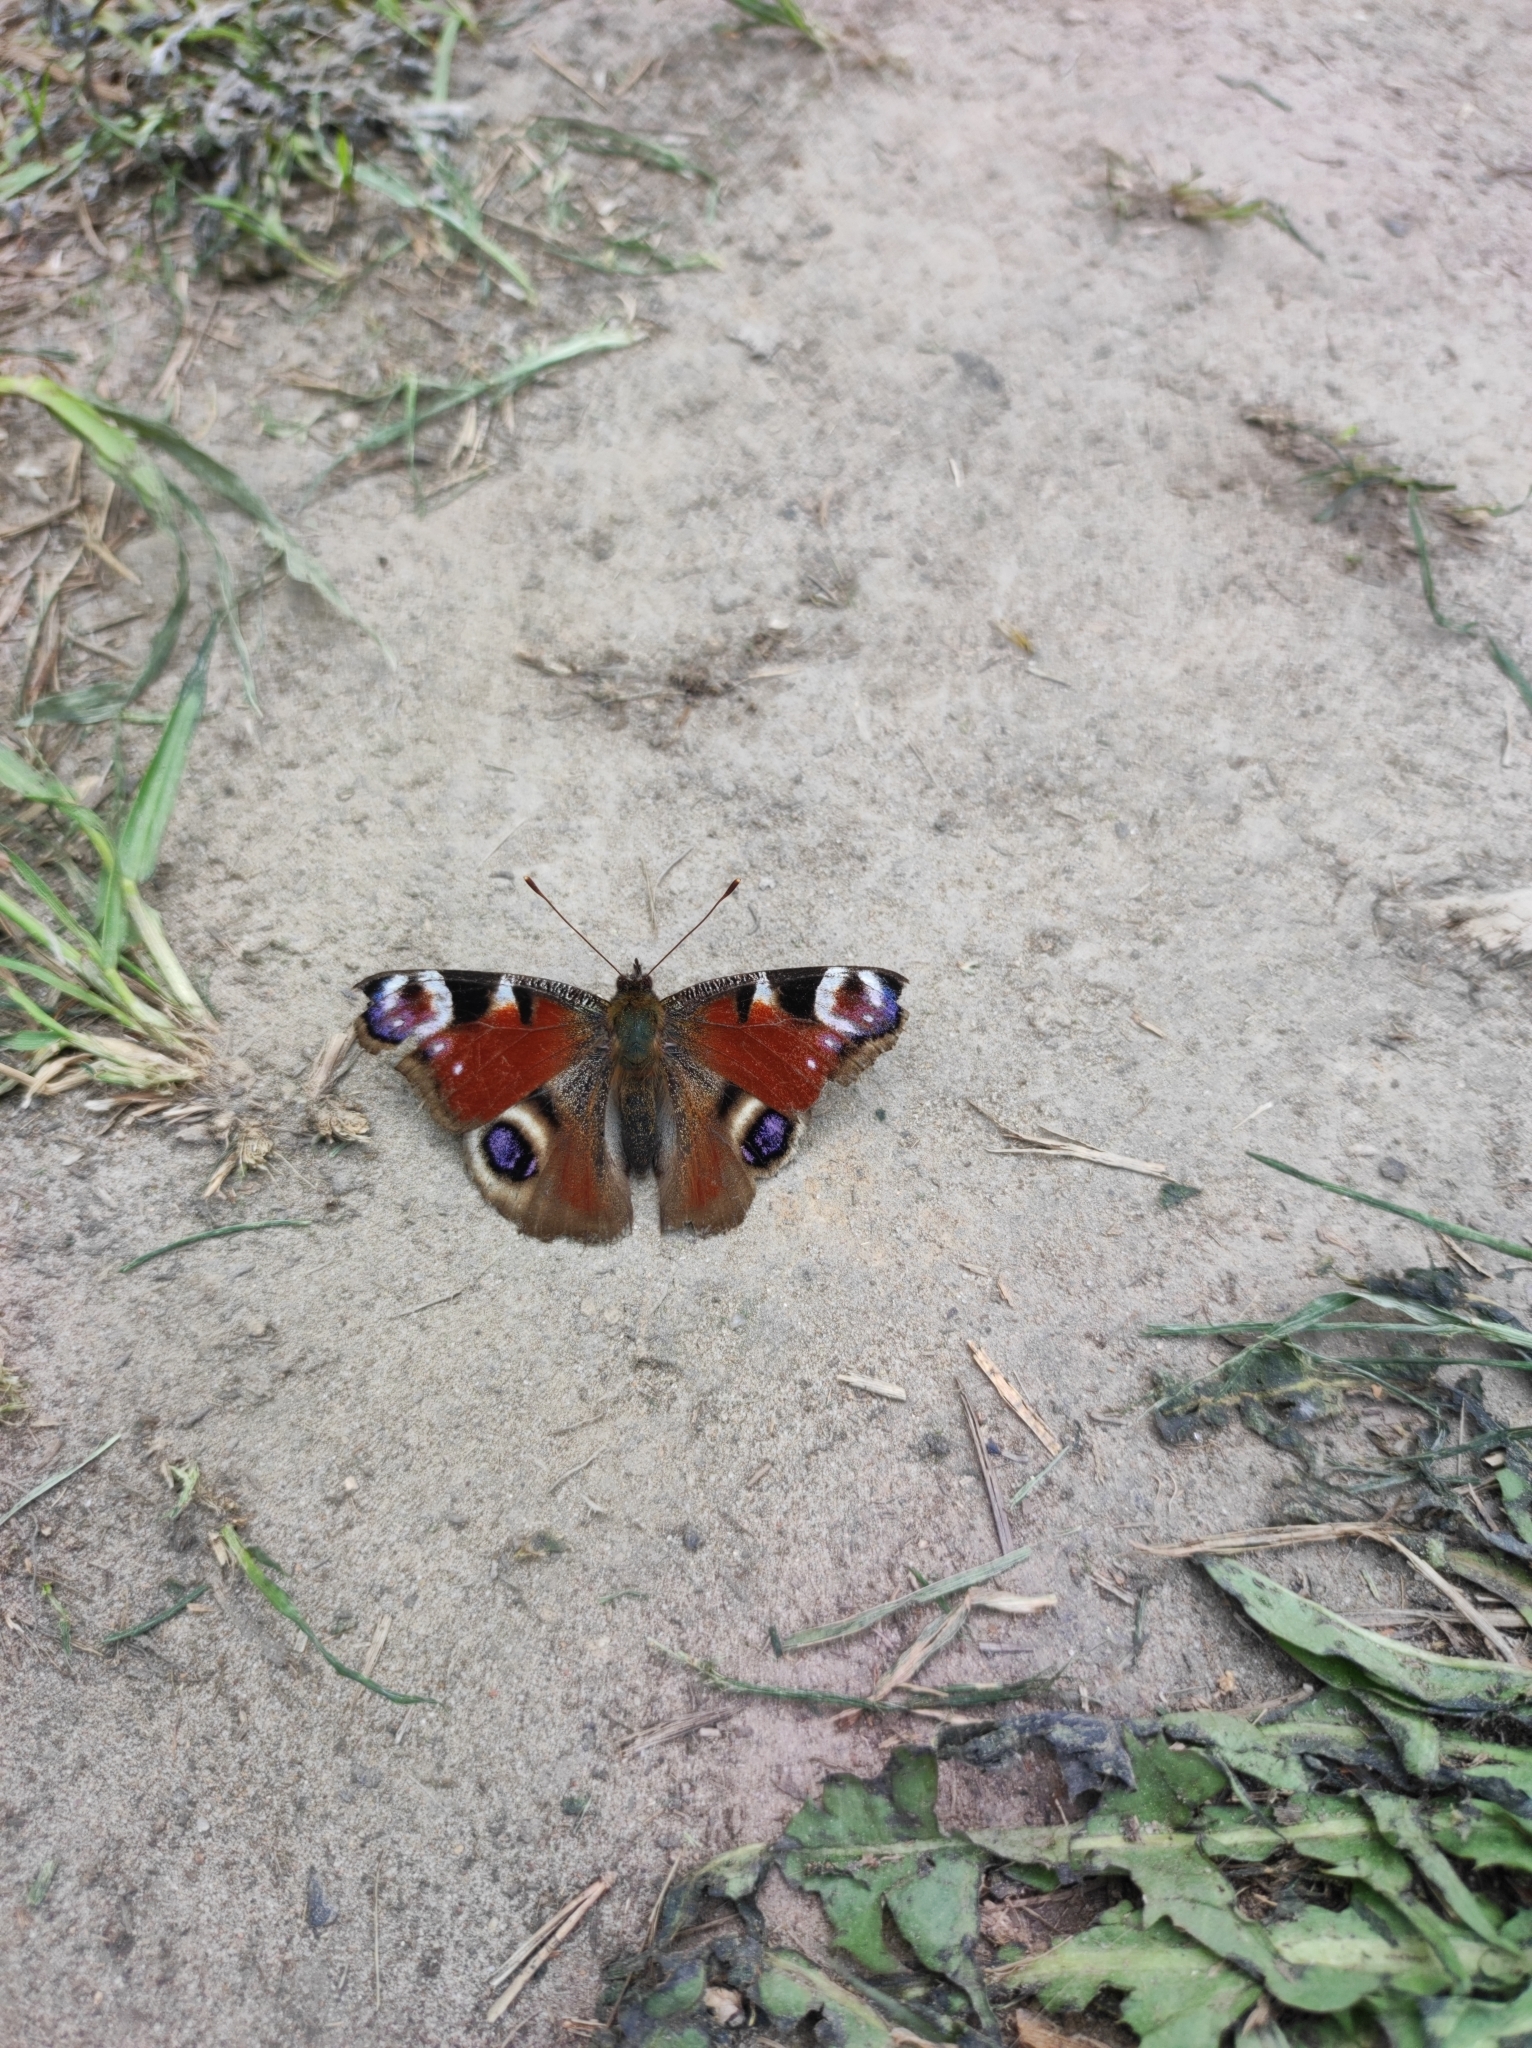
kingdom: Animalia
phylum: Arthropoda
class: Insecta
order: Lepidoptera
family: Nymphalidae
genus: Aglais
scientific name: Aglais io
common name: Peacock
